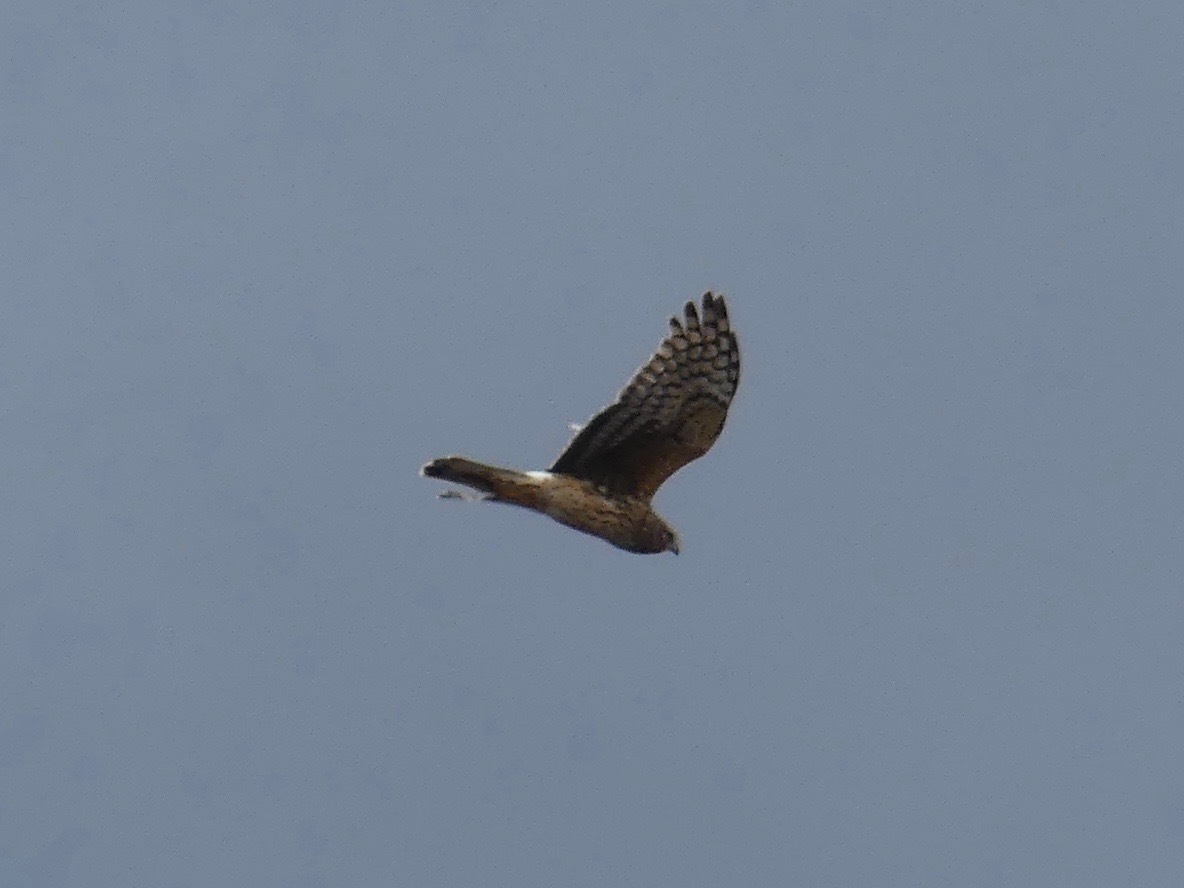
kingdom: Animalia
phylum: Chordata
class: Aves
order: Accipitriformes
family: Accipitridae
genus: Circus
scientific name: Circus cyaneus
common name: Hen harrier
